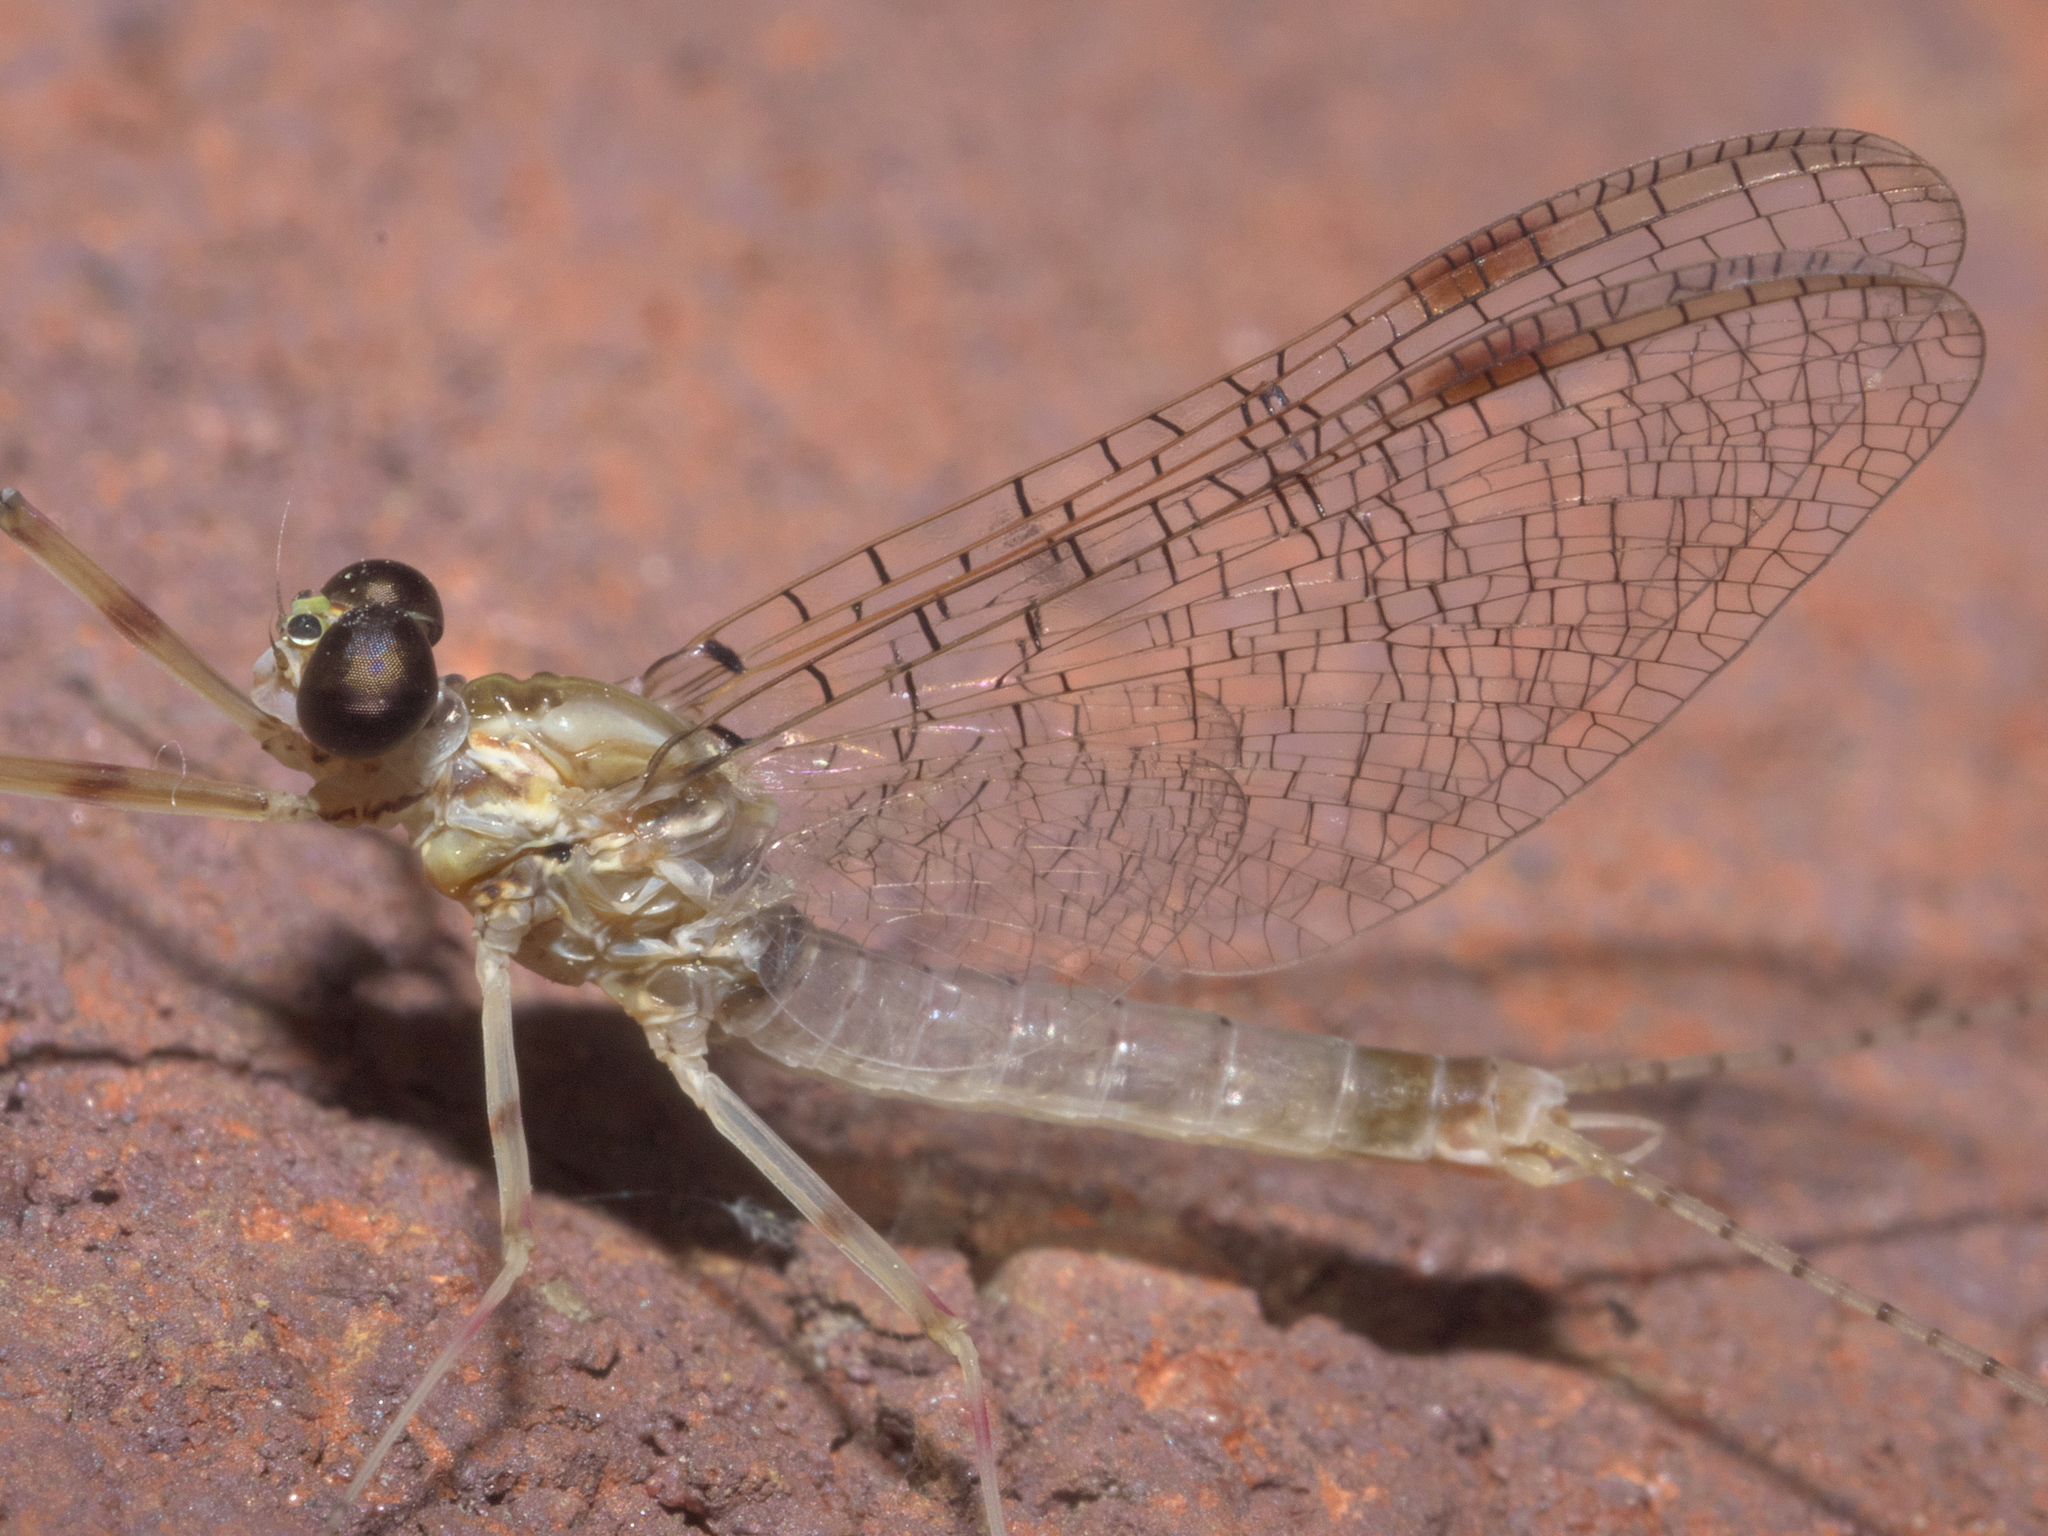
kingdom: Animalia
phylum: Arthropoda
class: Insecta
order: Ephemeroptera
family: Heptageniidae
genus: Stenonema
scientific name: Stenonema femoratum
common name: Dark cahill
